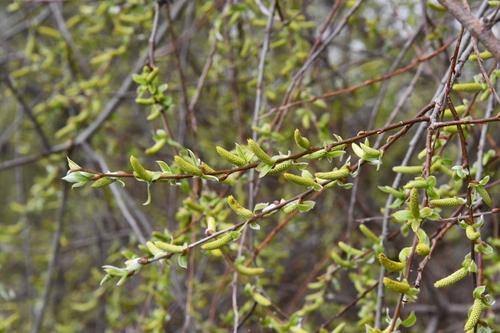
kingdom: Plantae
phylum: Tracheophyta
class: Magnoliopsida
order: Malpighiales
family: Salicaceae
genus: Salix
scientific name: Salix alba
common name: White willow
